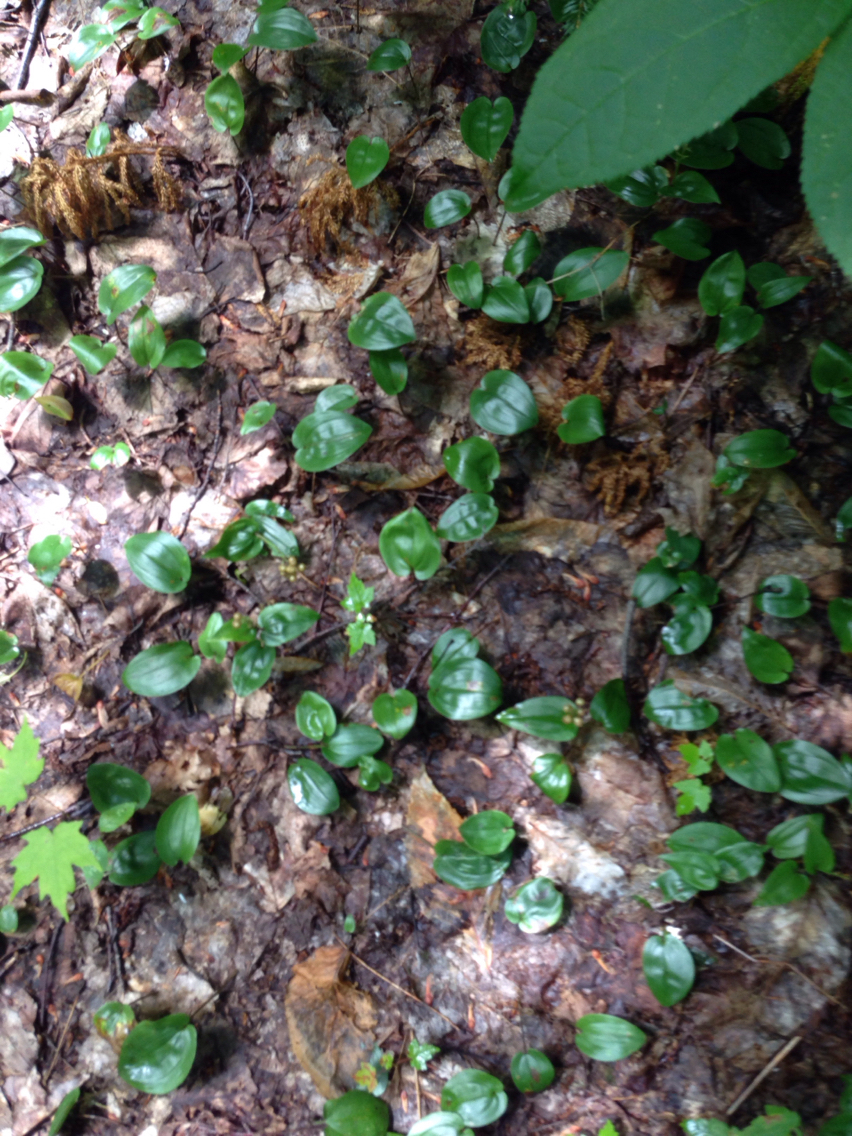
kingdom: Plantae
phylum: Tracheophyta
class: Liliopsida
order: Asparagales
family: Asparagaceae
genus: Maianthemum
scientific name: Maianthemum canadense
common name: False lily-of-the-valley
